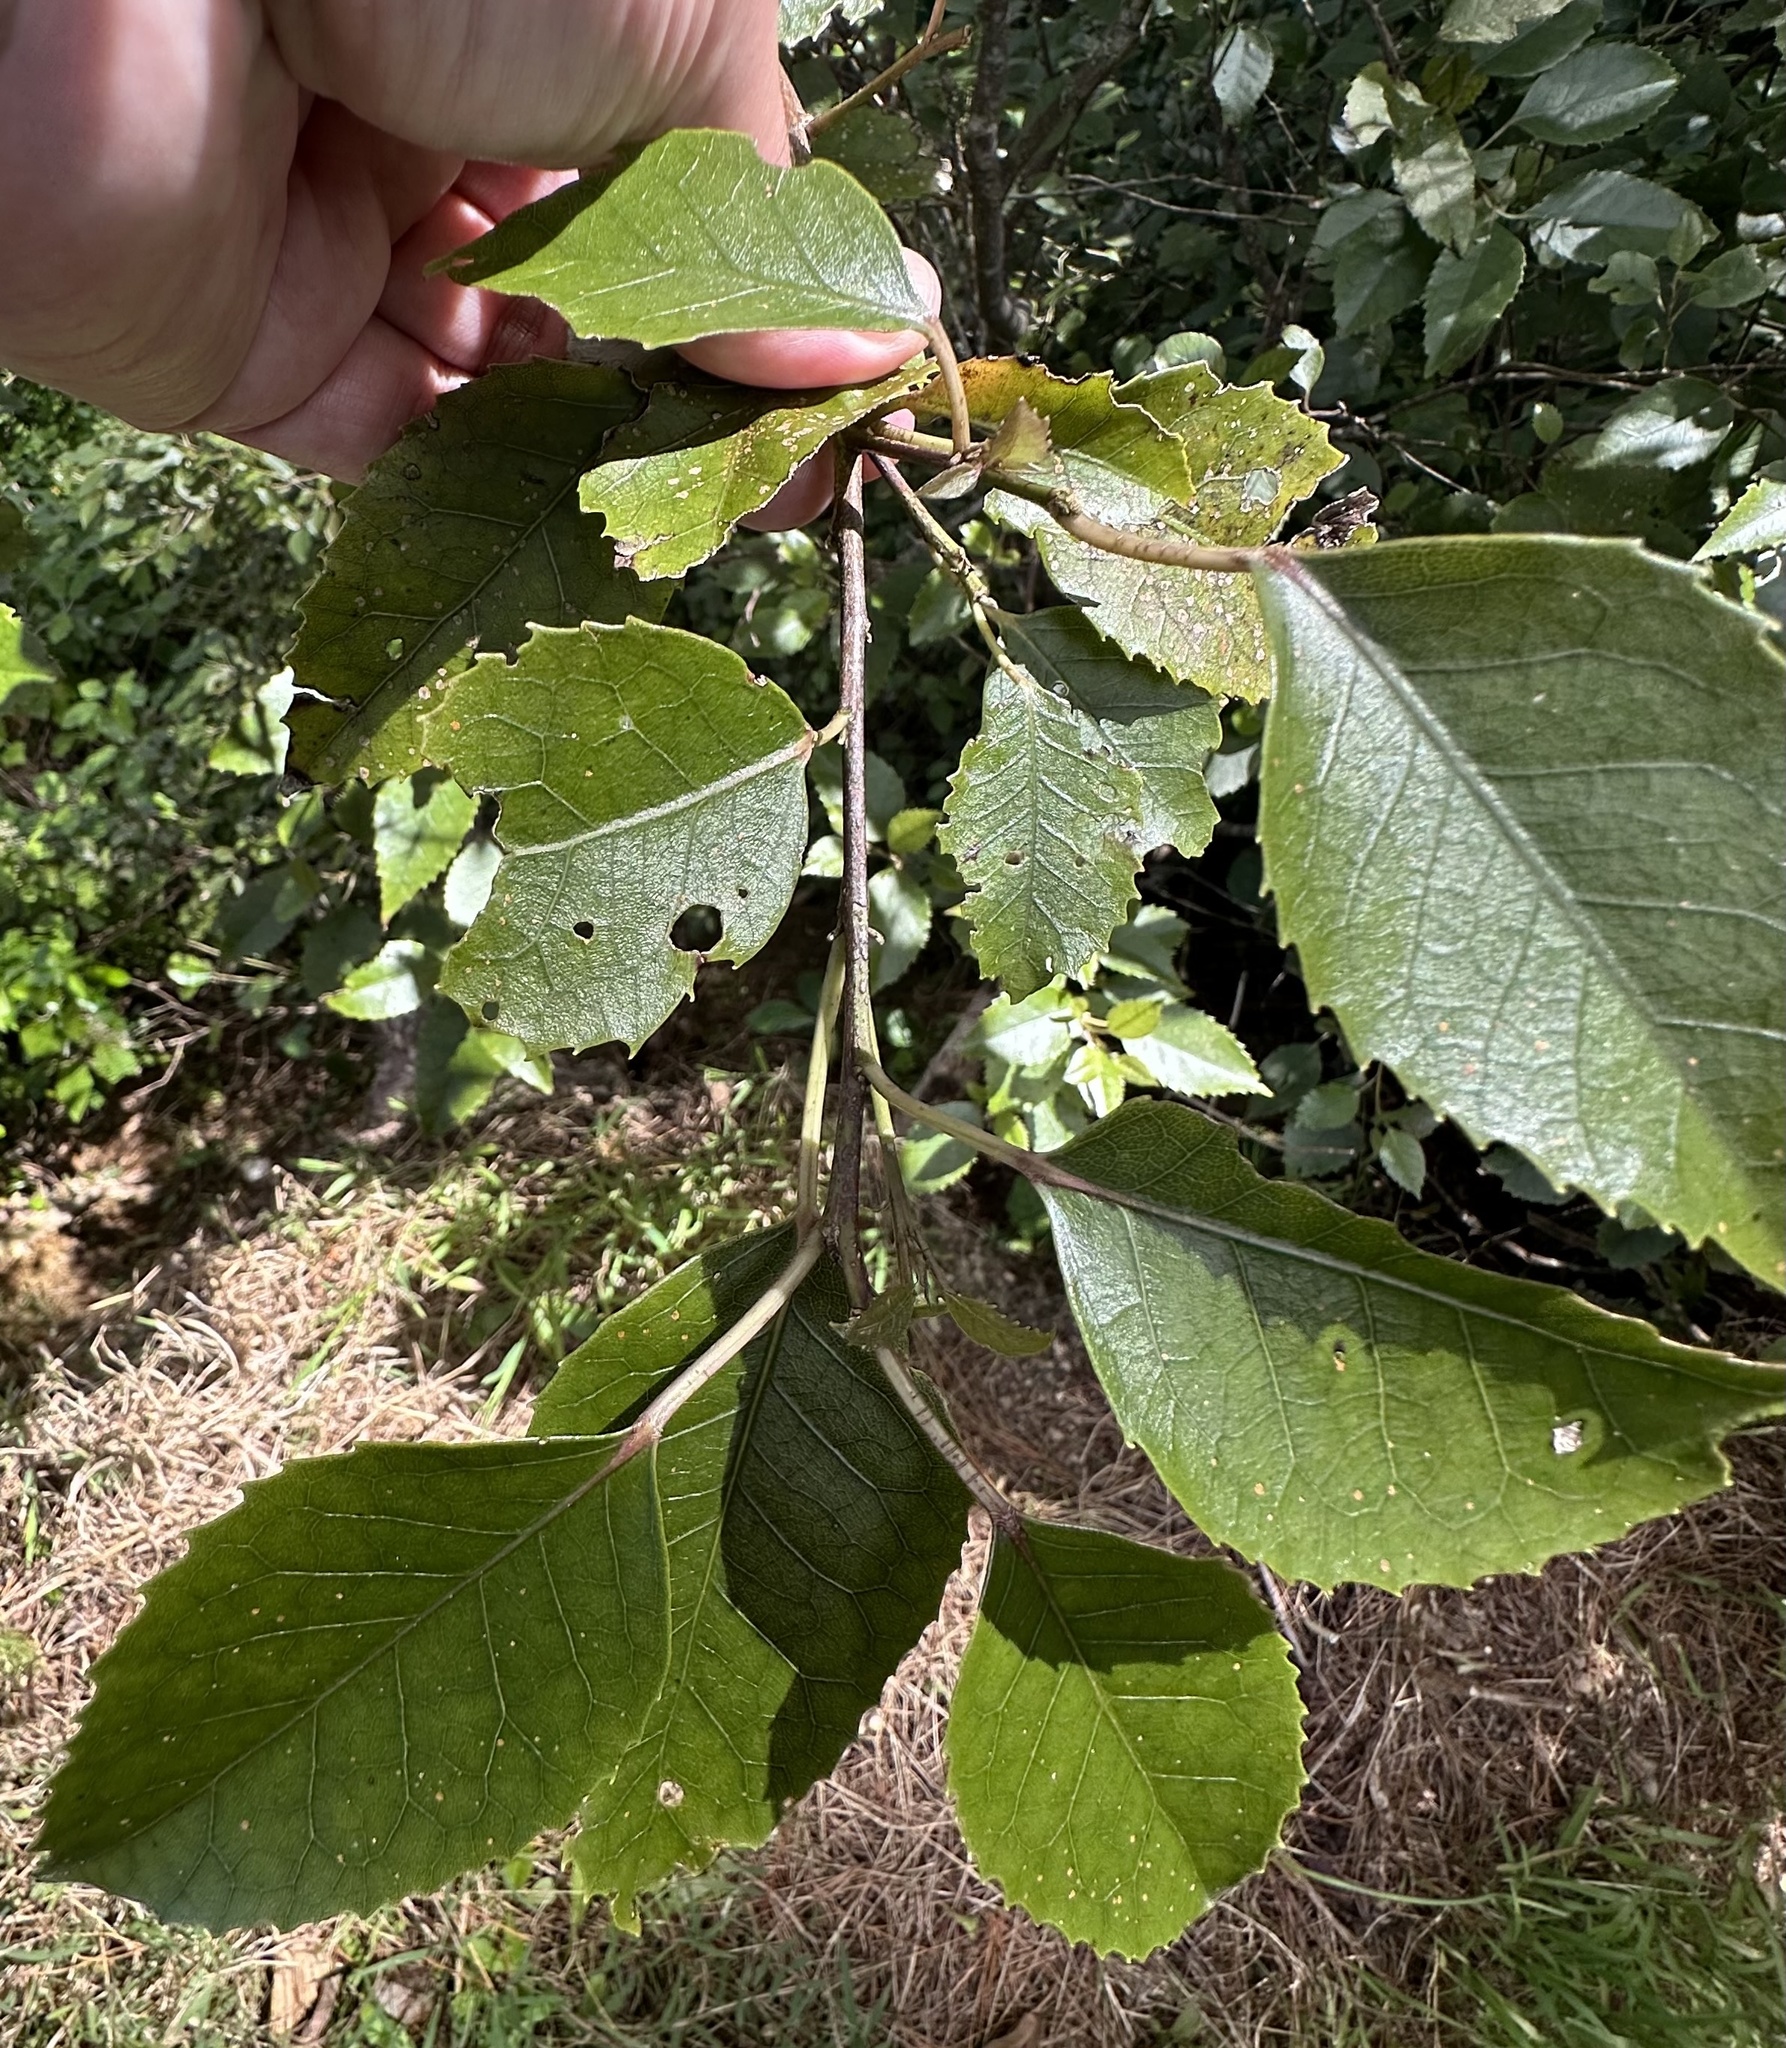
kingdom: Plantae
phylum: Tracheophyta
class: Magnoliopsida
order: Malvales
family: Malvaceae
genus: Hoheria
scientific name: Hoheria populnea
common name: Lacebark
